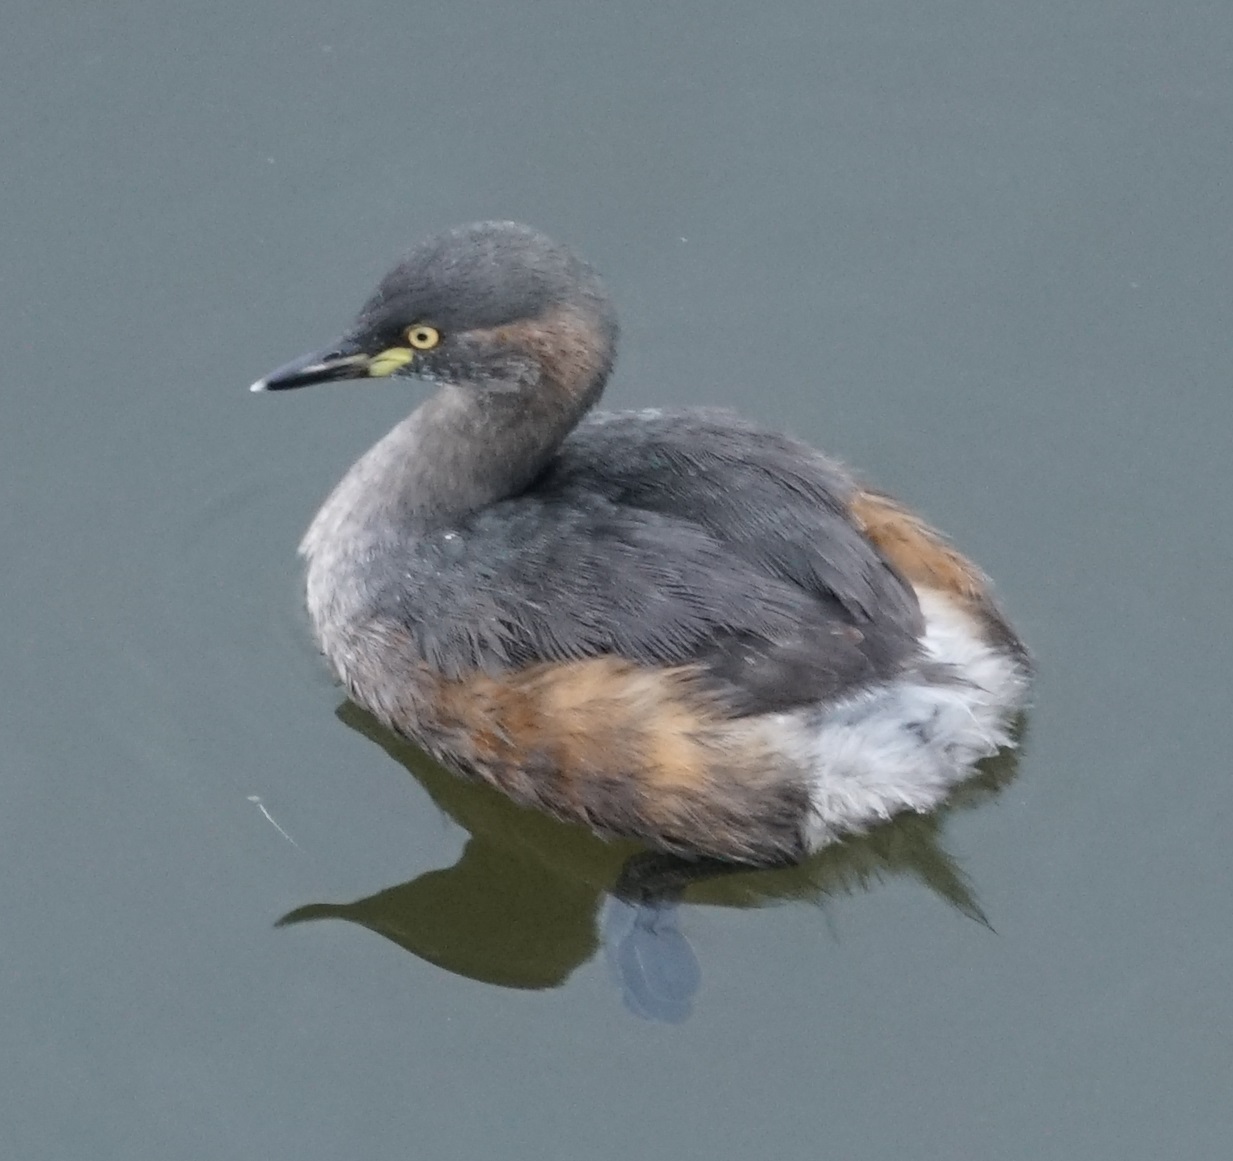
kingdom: Animalia
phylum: Chordata
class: Aves
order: Podicipediformes
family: Podicipedidae
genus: Tachybaptus
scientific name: Tachybaptus novaehollandiae
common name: Australasian grebe
